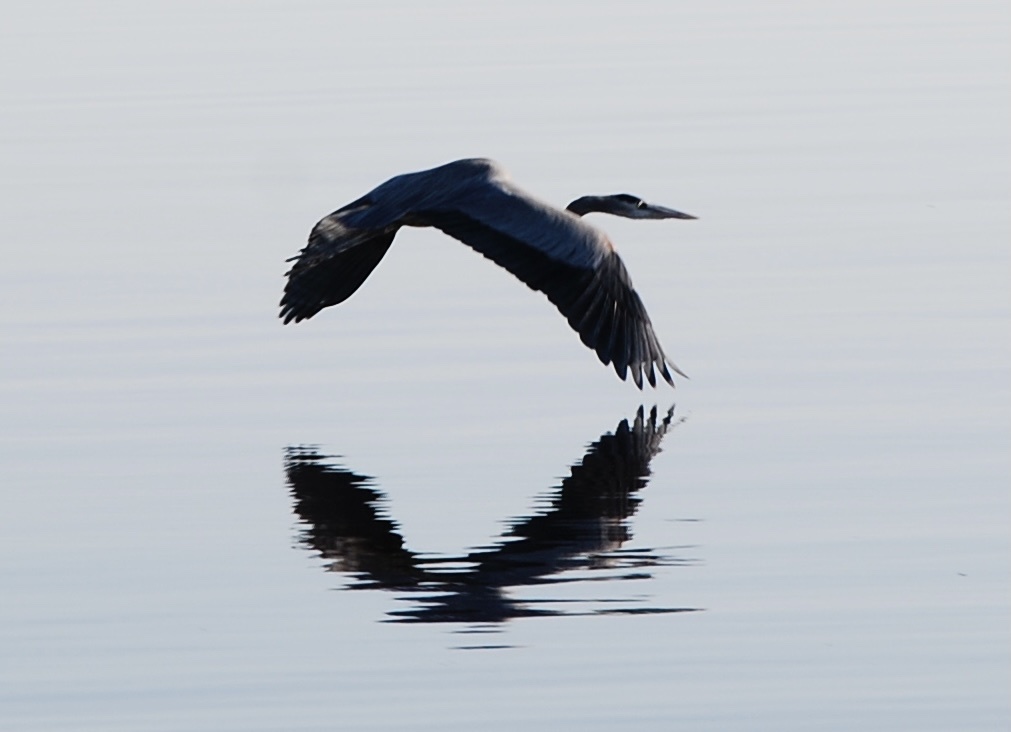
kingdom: Animalia
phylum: Chordata
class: Aves
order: Pelecaniformes
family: Ardeidae
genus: Ardea
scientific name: Ardea herodias
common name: Great blue heron
